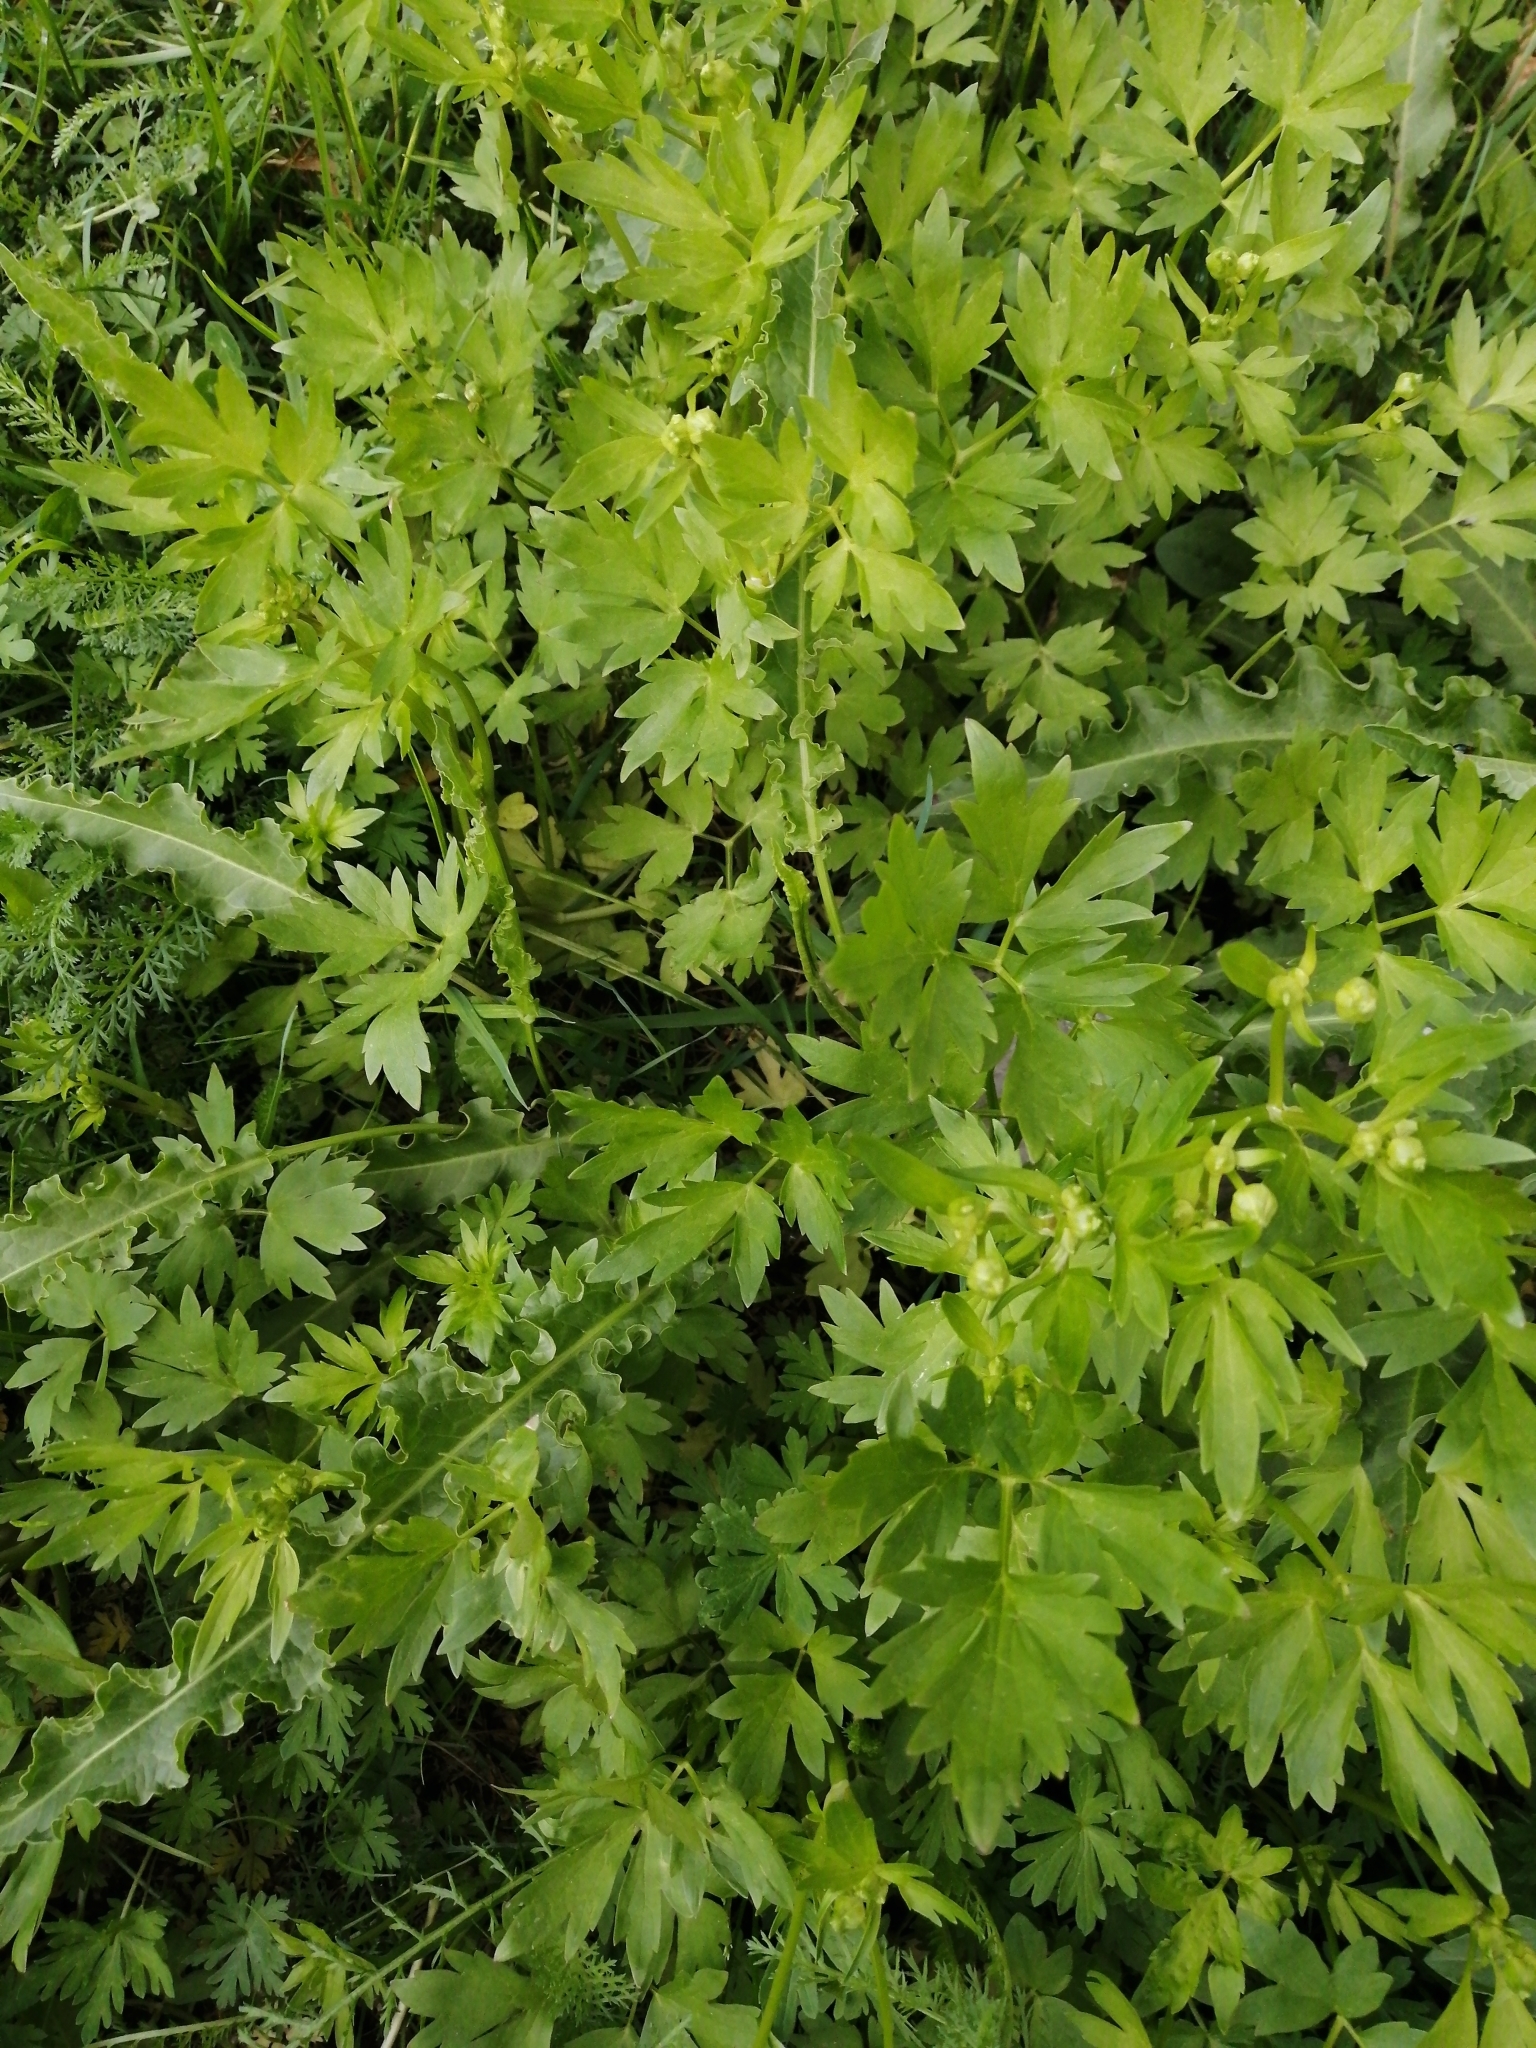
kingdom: Plantae
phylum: Tracheophyta
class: Magnoliopsida
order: Ranunculales
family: Ranunculaceae
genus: Ranunculus
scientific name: Ranunculus repens
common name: Creeping buttercup
